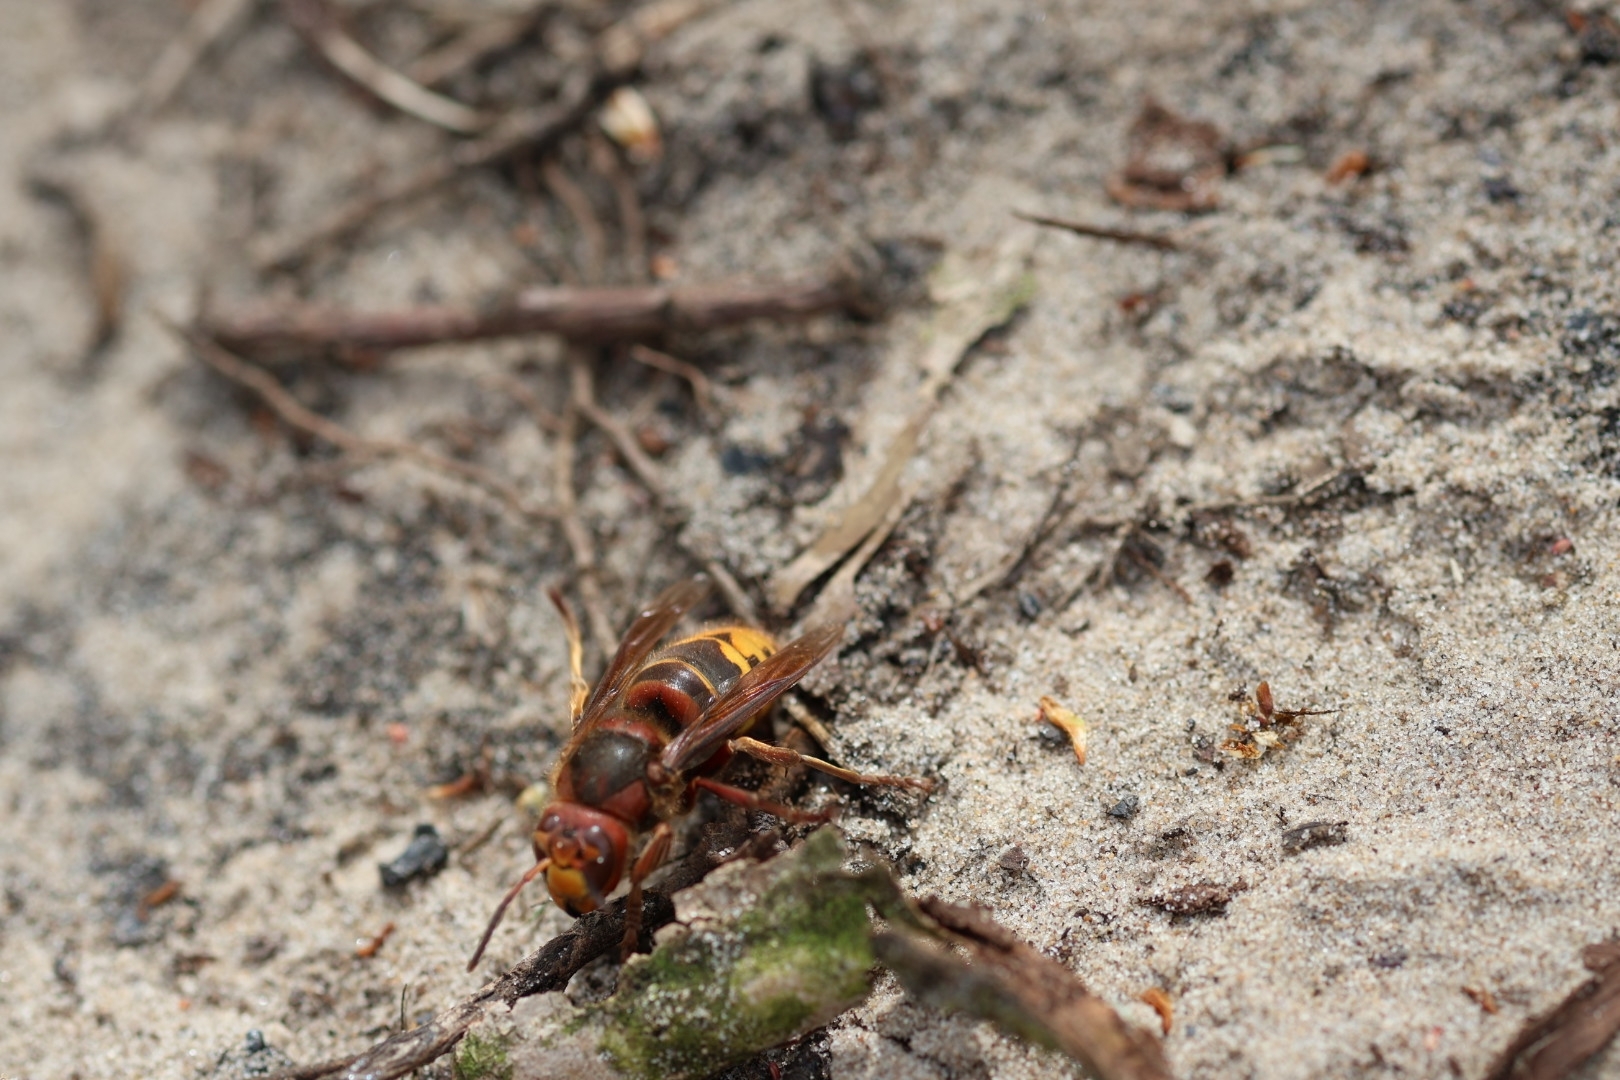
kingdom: Animalia
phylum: Arthropoda
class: Insecta
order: Hymenoptera
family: Vespidae
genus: Vespa
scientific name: Vespa crabro
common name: Hornet
